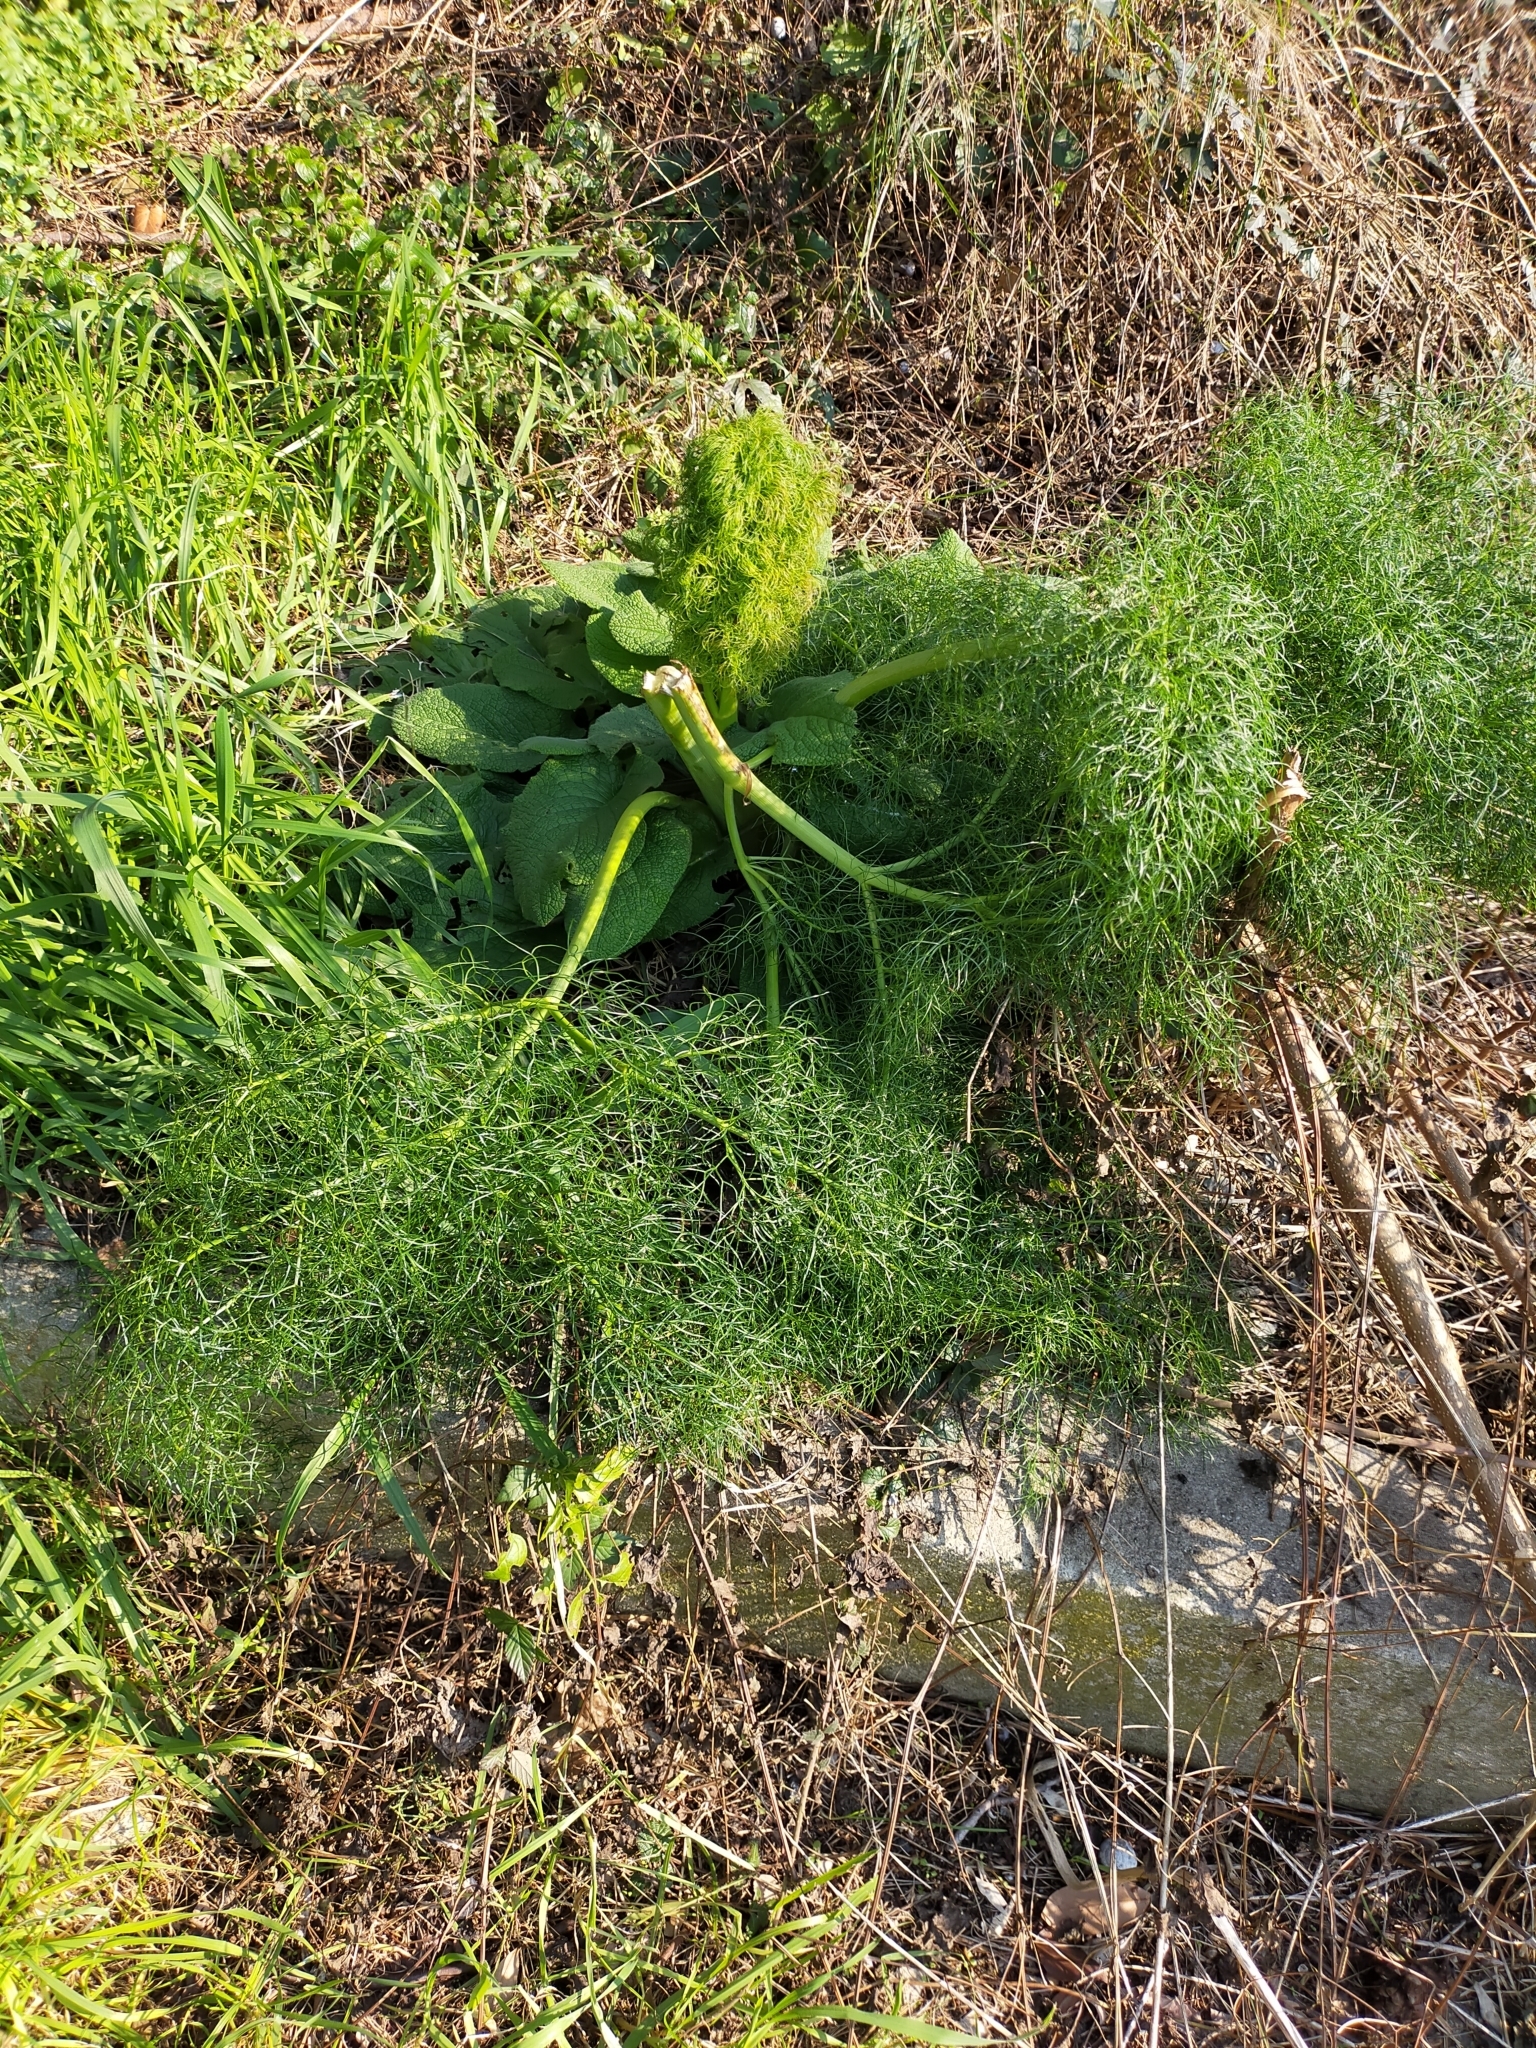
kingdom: Plantae
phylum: Tracheophyta
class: Magnoliopsida
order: Apiales
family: Apiaceae
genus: Ferula
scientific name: Ferula communis
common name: Giant fennel
